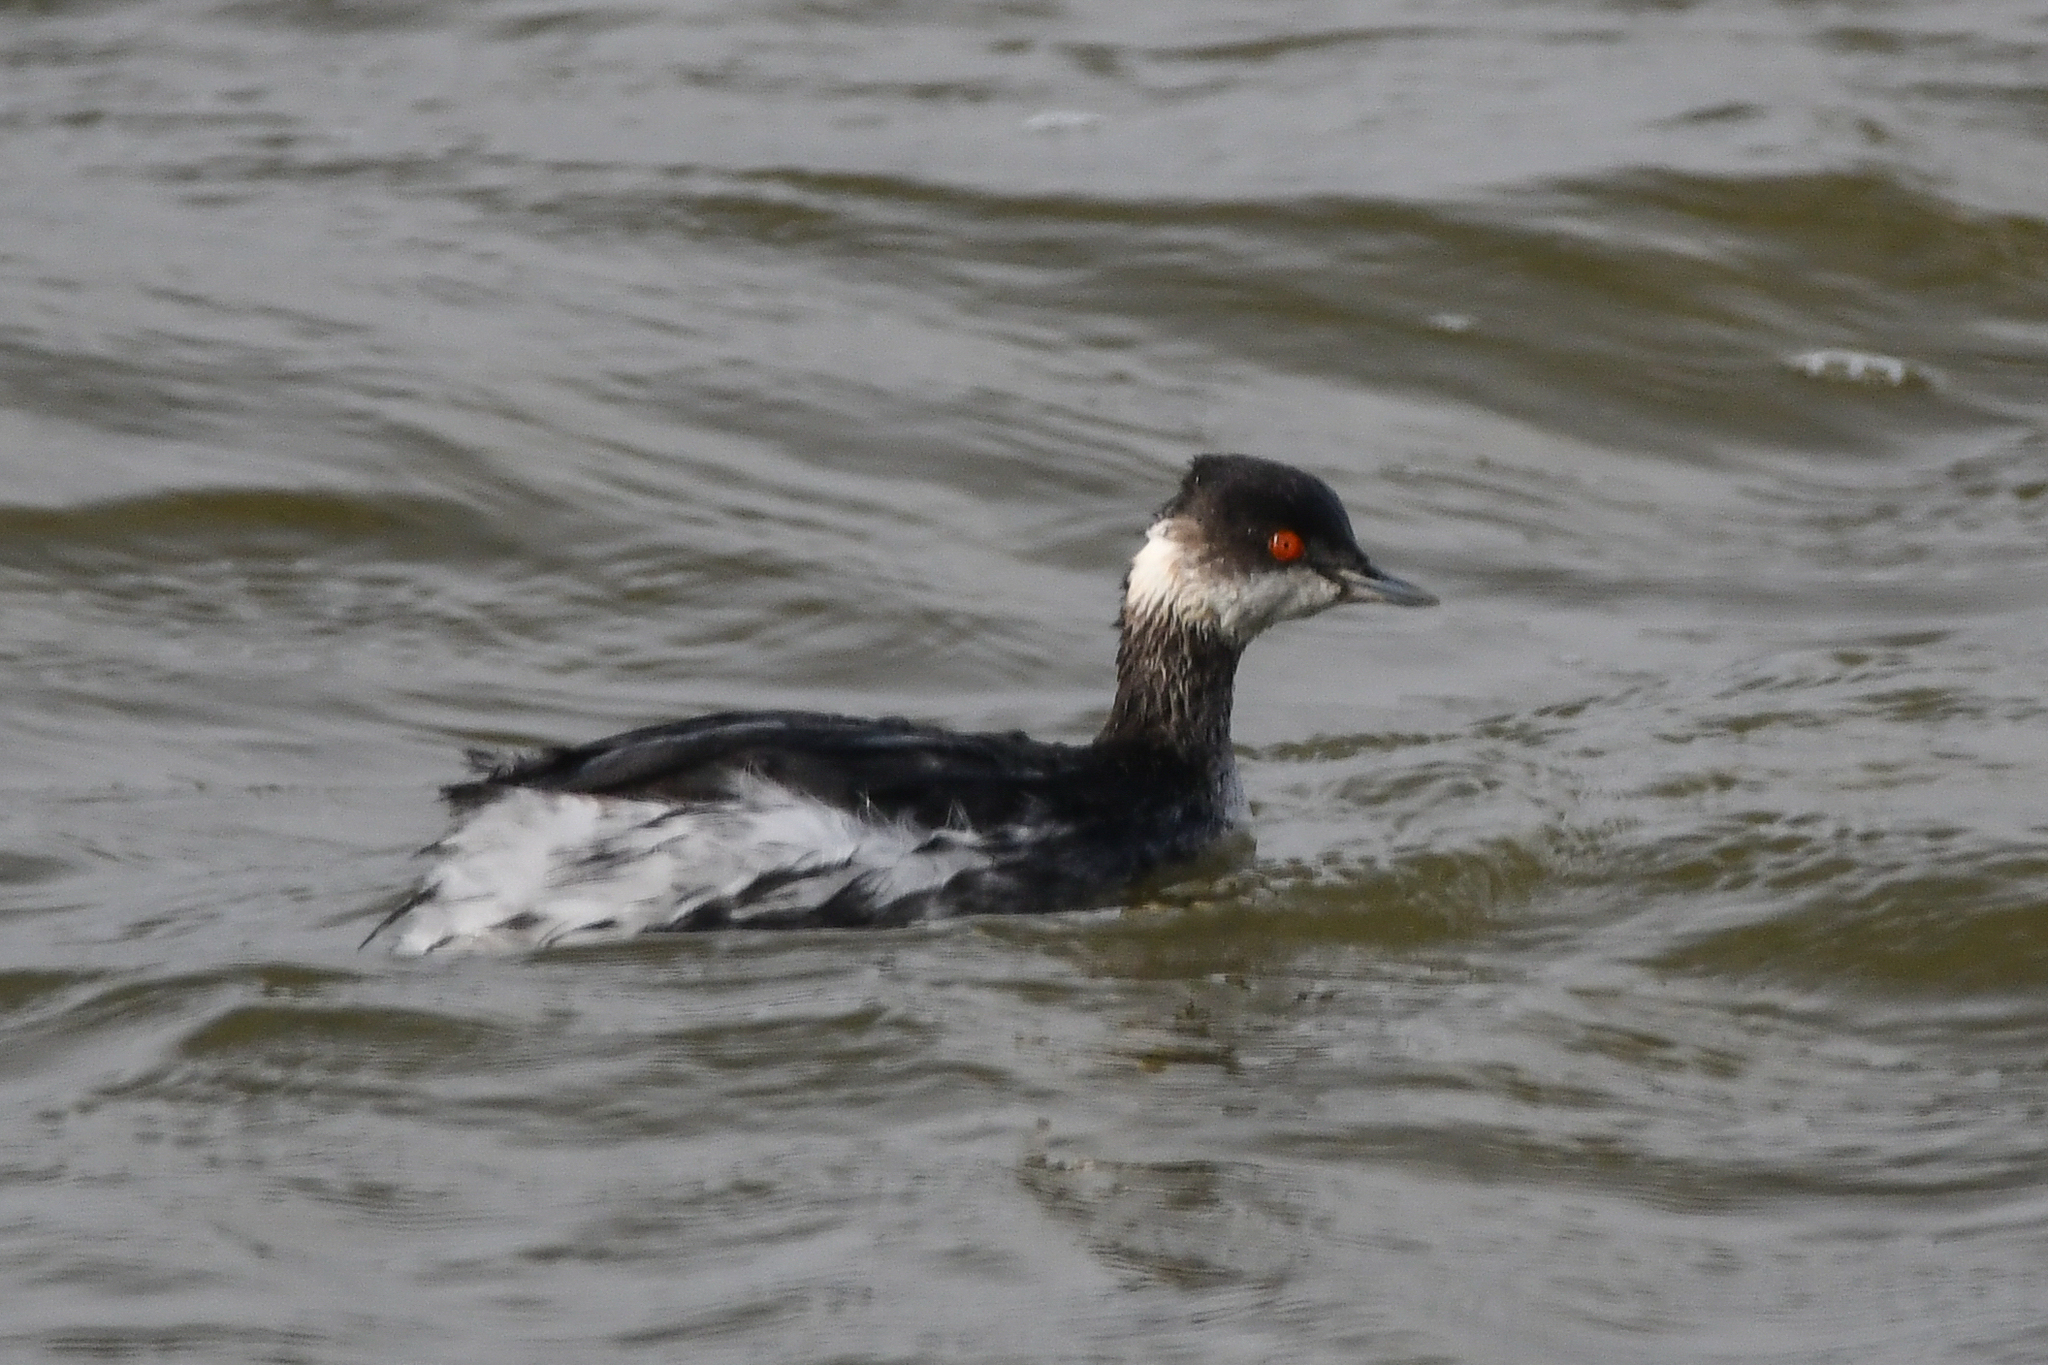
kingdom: Animalia
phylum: Chordata
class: Aves
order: Podicipediformes
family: Podicipedidae
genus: Podiceps
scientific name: Podiceps nigricollis
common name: Black-necked grebe
